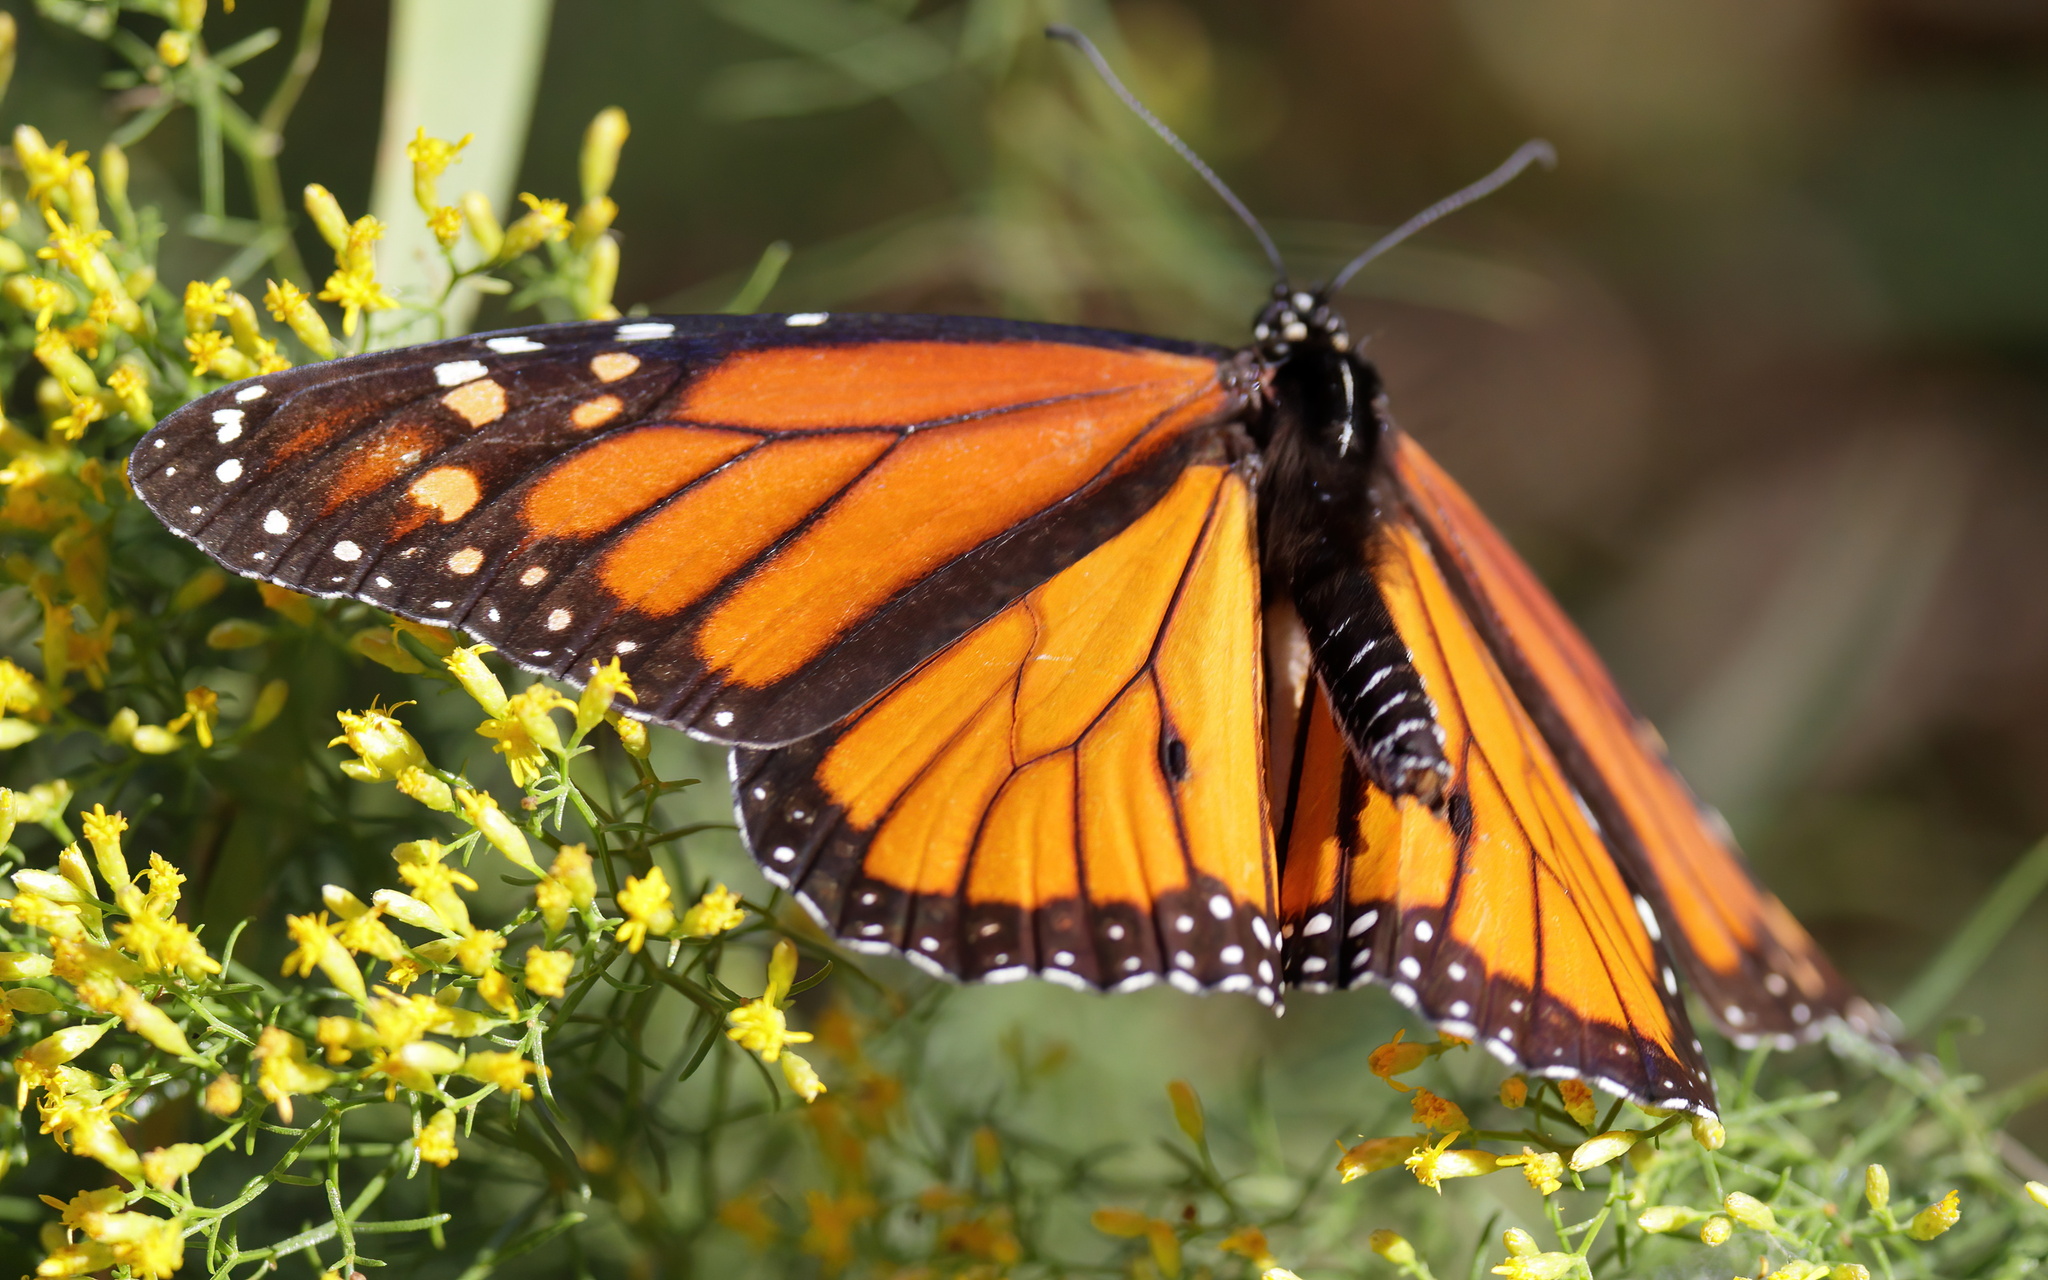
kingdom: Animalia
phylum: Arthropoda
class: Insecta
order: Lepidoptera
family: Nymphalidae
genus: Danaus
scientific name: Danaus plexippus
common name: Monarch
